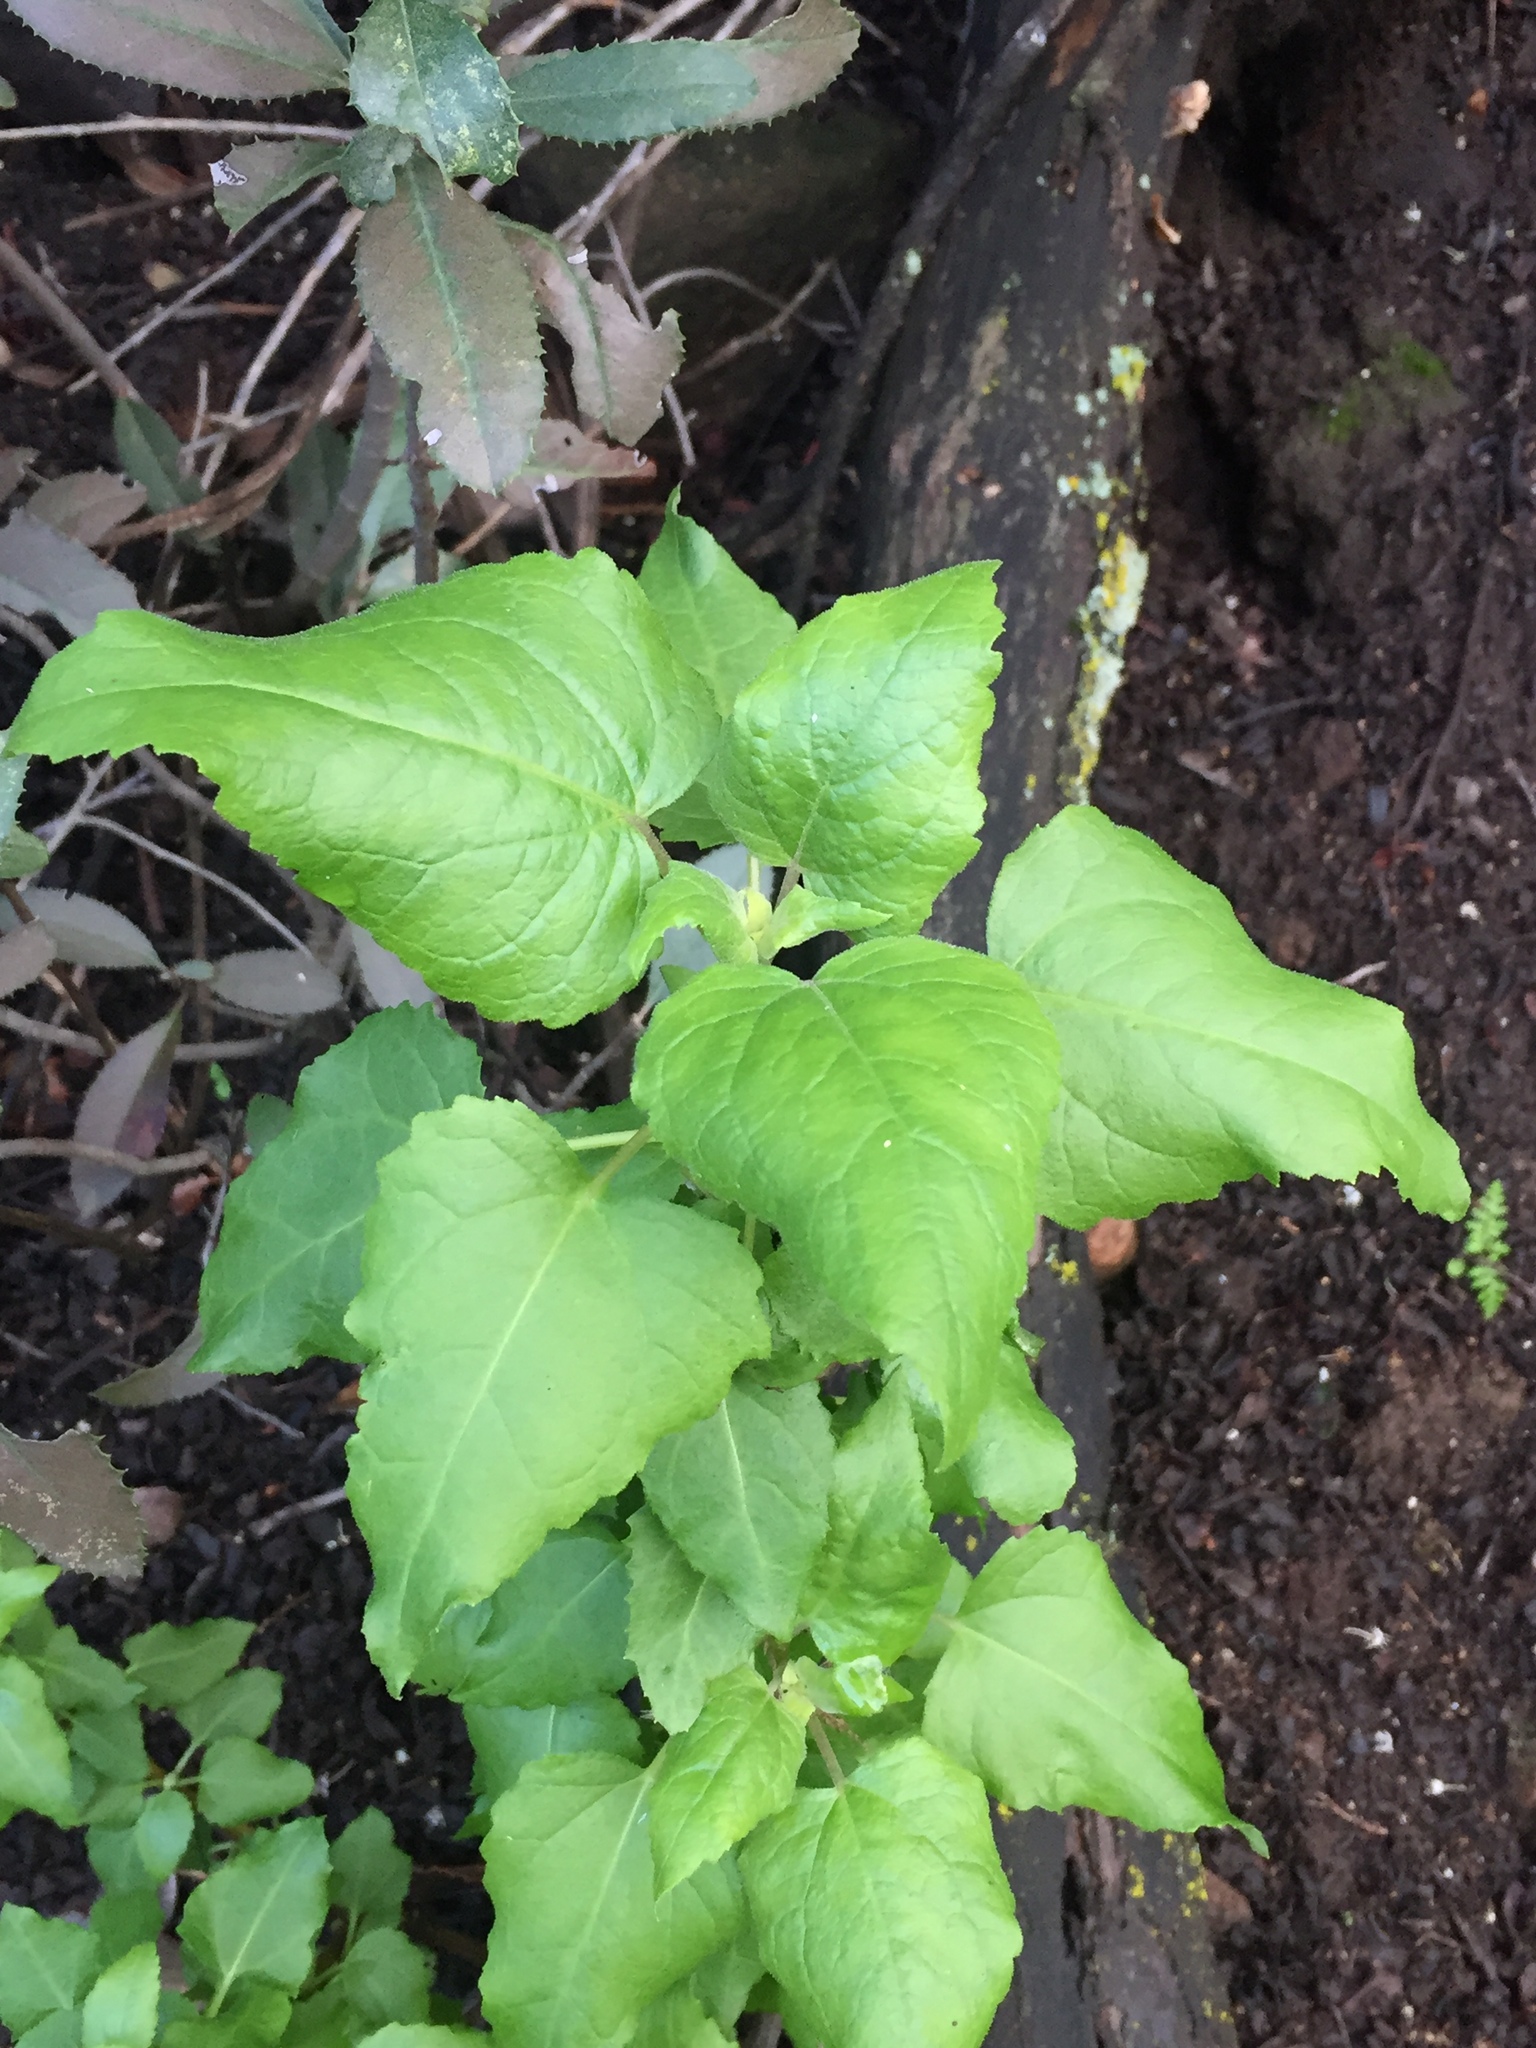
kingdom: Plantae
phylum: Tracheophyta
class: Magnoliopsida
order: Asterales
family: Asteraceae
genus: Venegasia
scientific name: Venegasia carpesioides
